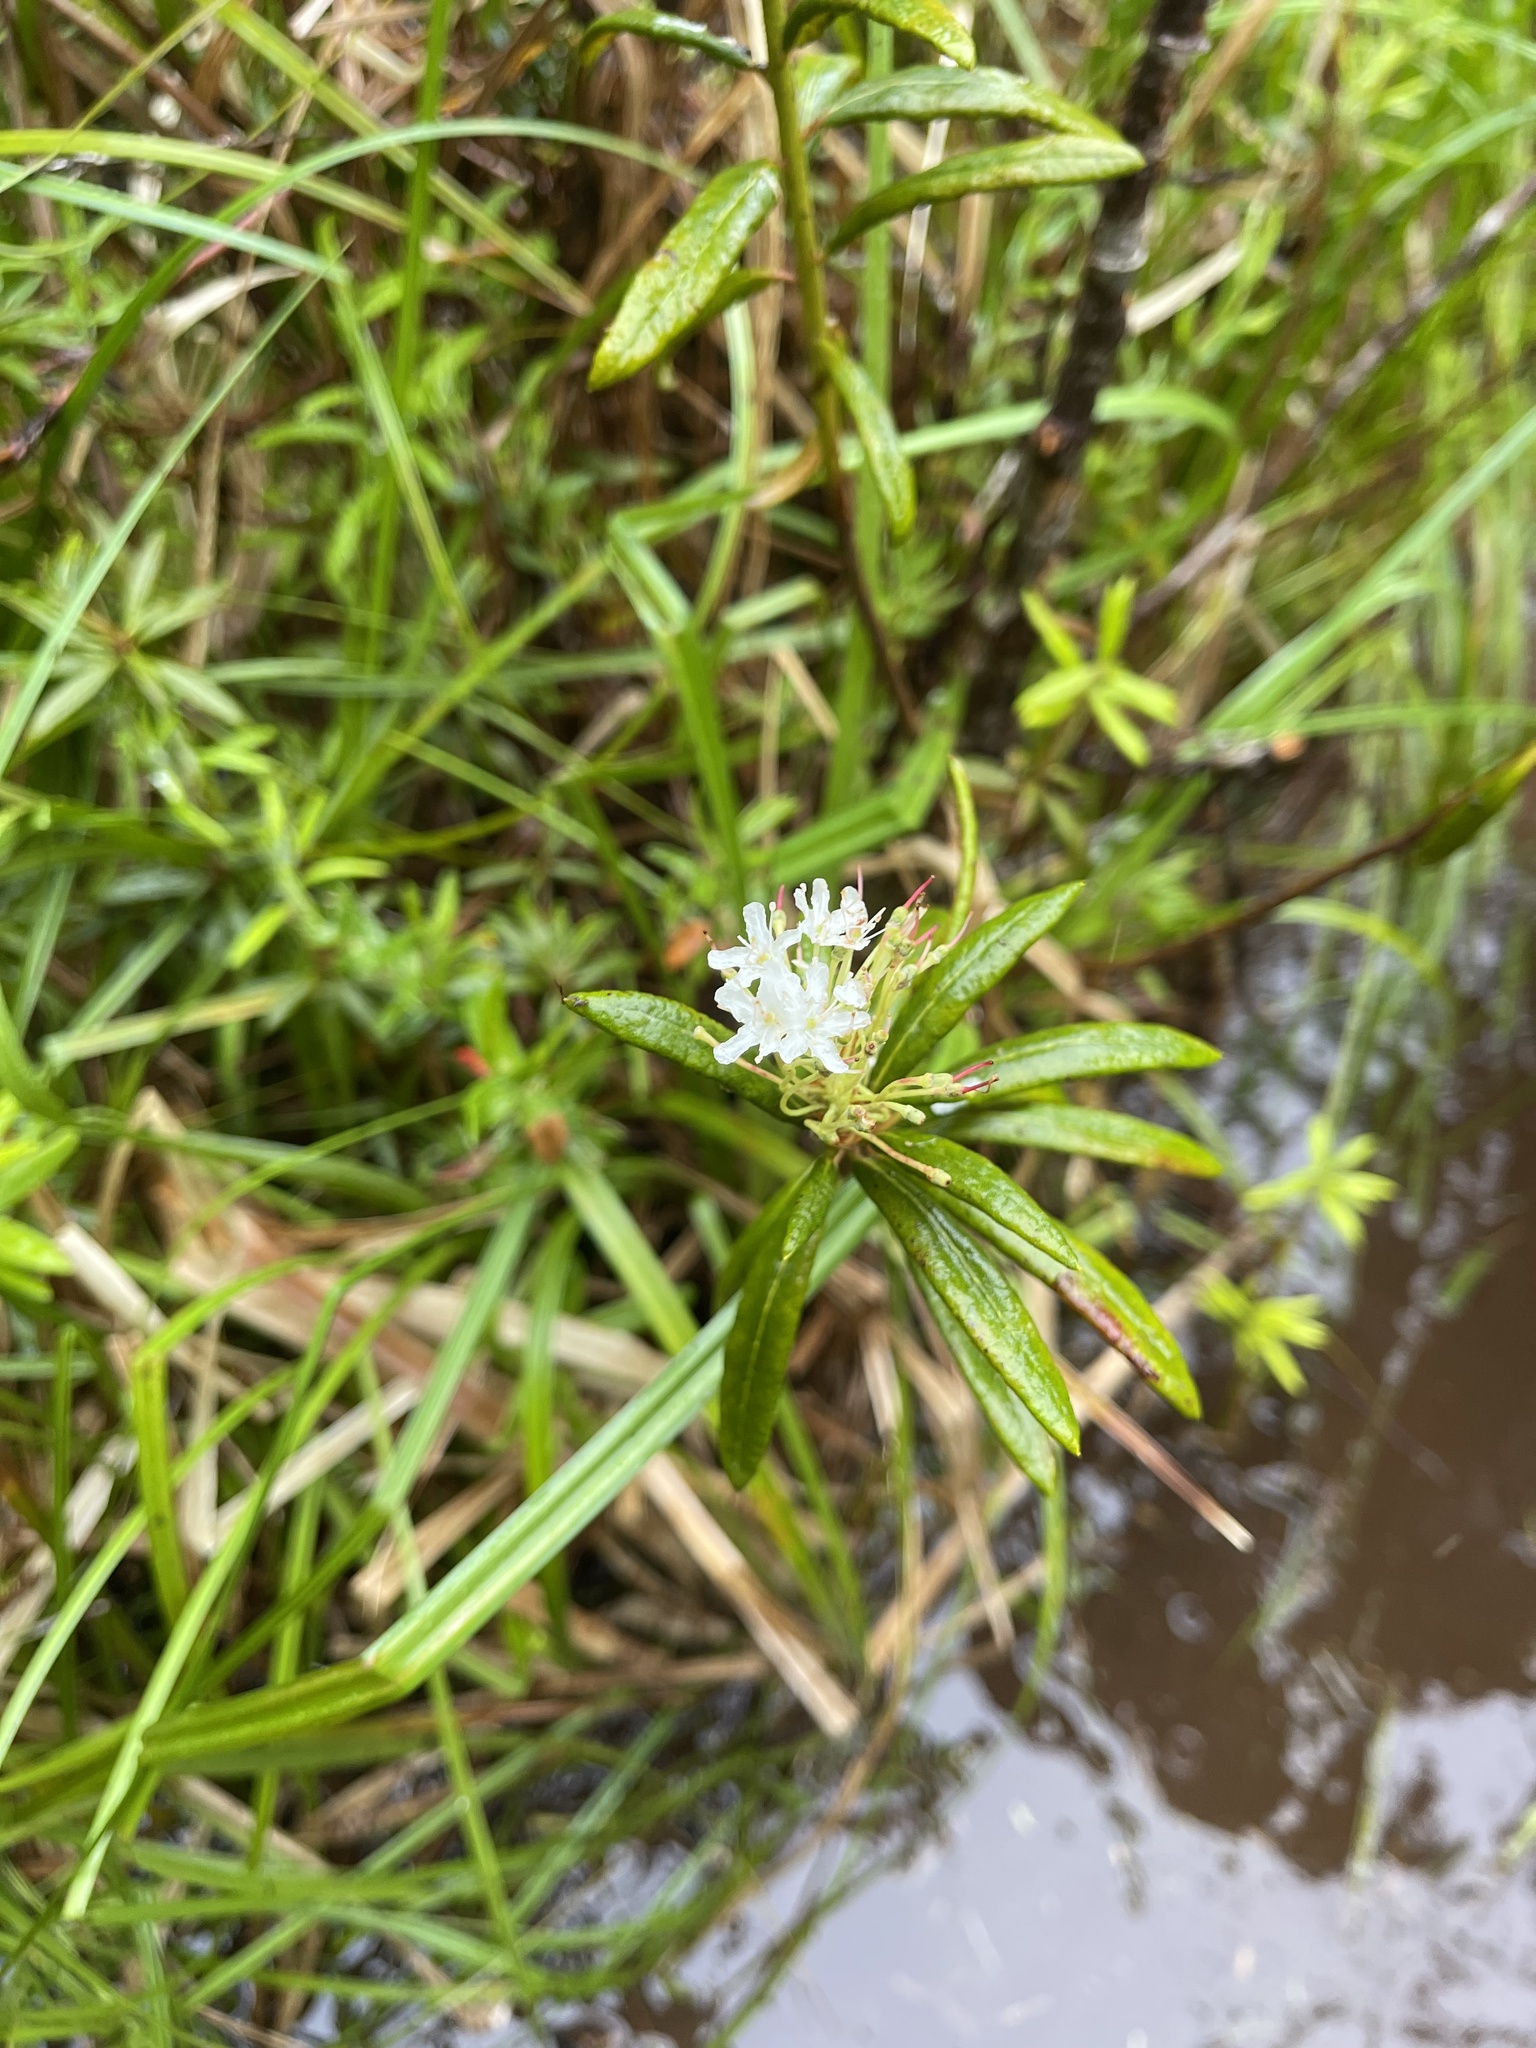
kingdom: Plantae
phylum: Tracheophyta
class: Magnoliopsida
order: Ericales
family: Ericaceae
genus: Rhododendron
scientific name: Rhododendron groenlandicum
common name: Bog labrador tea
